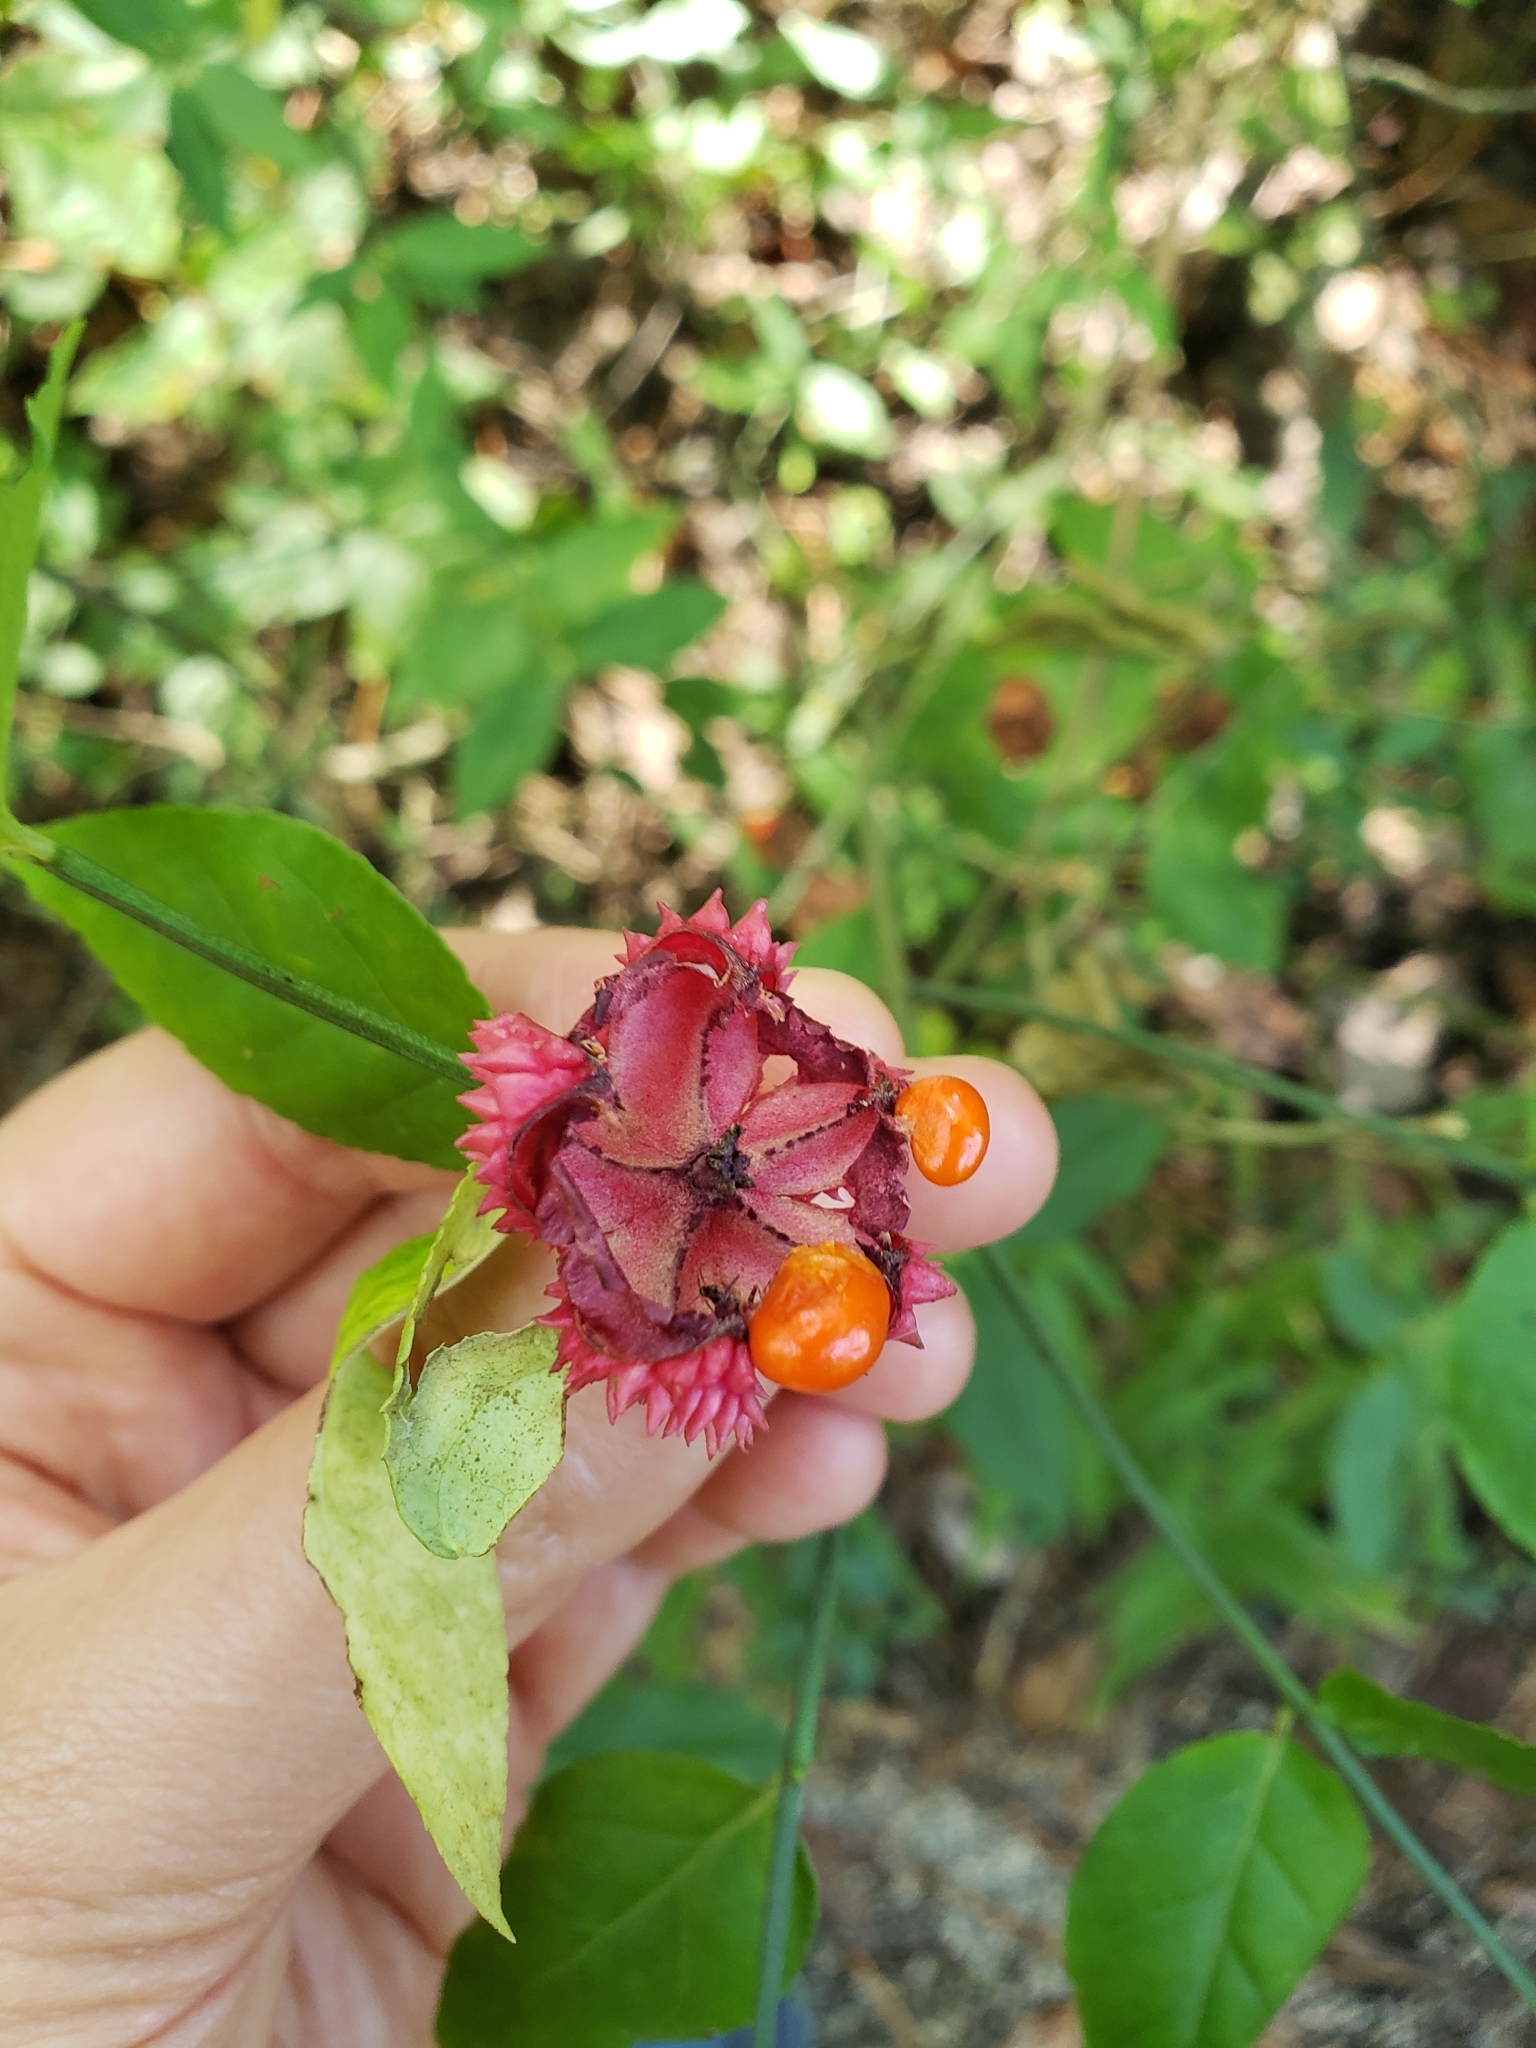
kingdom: Plantae
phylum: Tracheophyta
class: Magnoliopsida
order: Celastrales
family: Celastraceae
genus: Euonymus
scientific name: Euonymus americanus
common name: Bursting-heart
